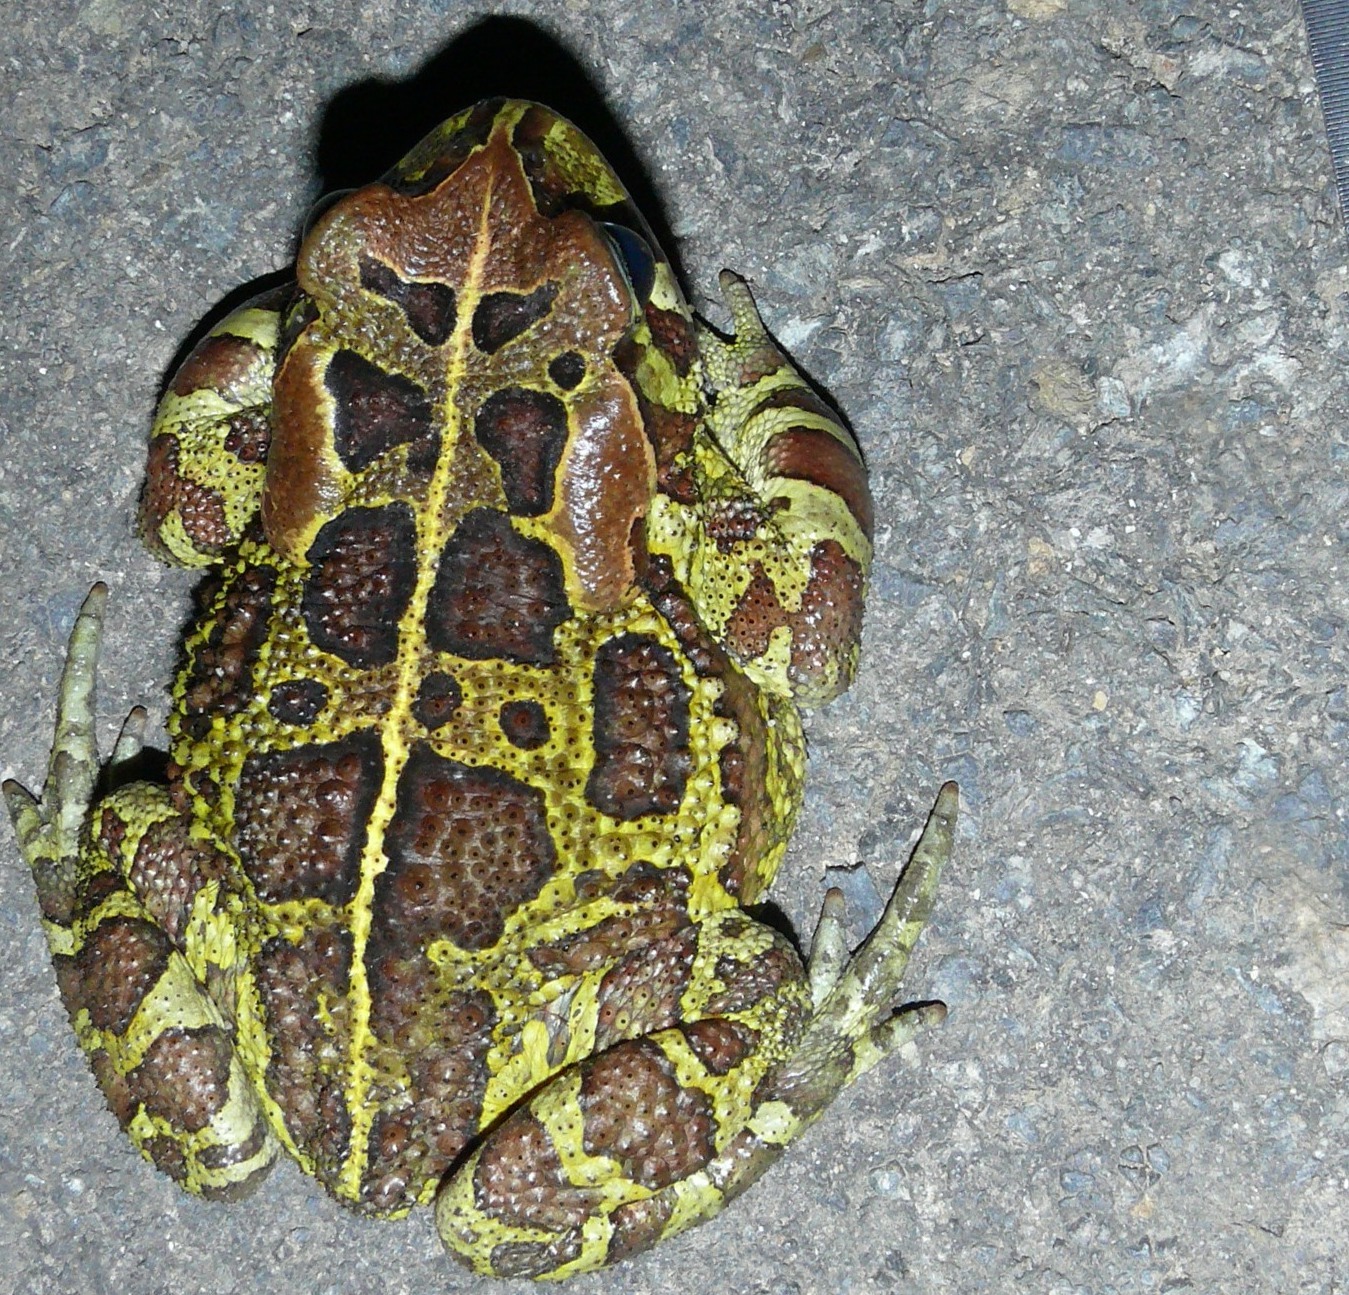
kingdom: Animalia
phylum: Chordata
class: Amphibia
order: Anura
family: Bufonidae
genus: Sclerophrys
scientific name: Sclerophrys pantherina
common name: Panther toad
